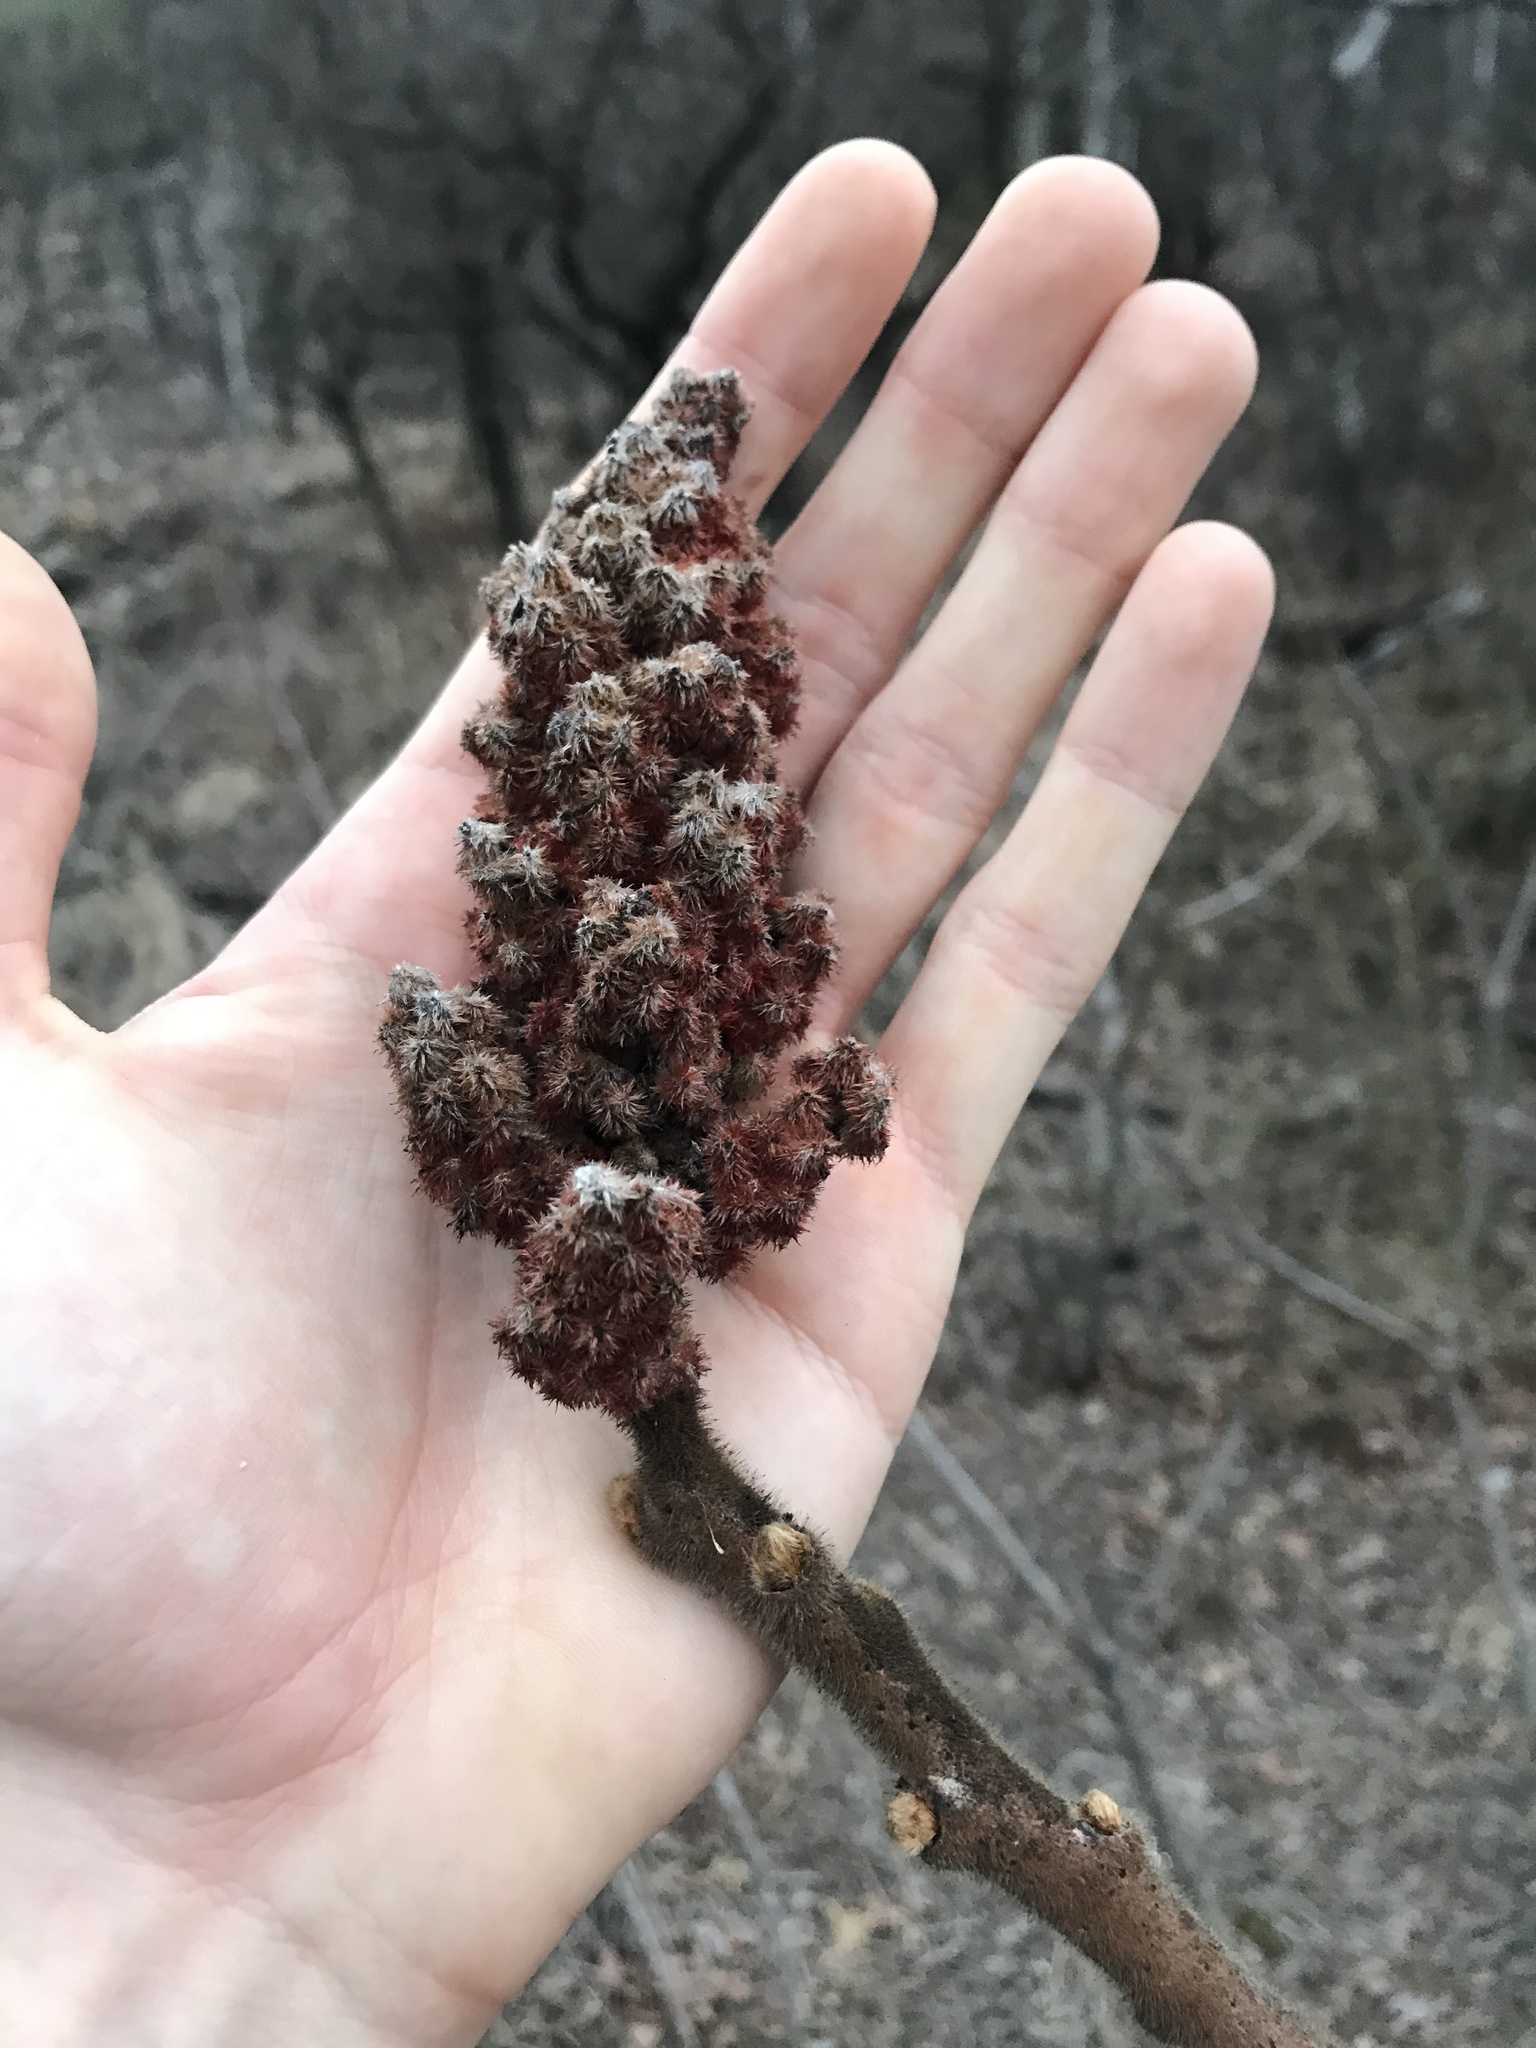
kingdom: Plantae
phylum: Tracheophyta
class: Magnoliopsida
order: Sapindales
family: Anacardiaceae
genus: Rhus
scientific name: Rhus typhina
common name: Staghorn sumac
